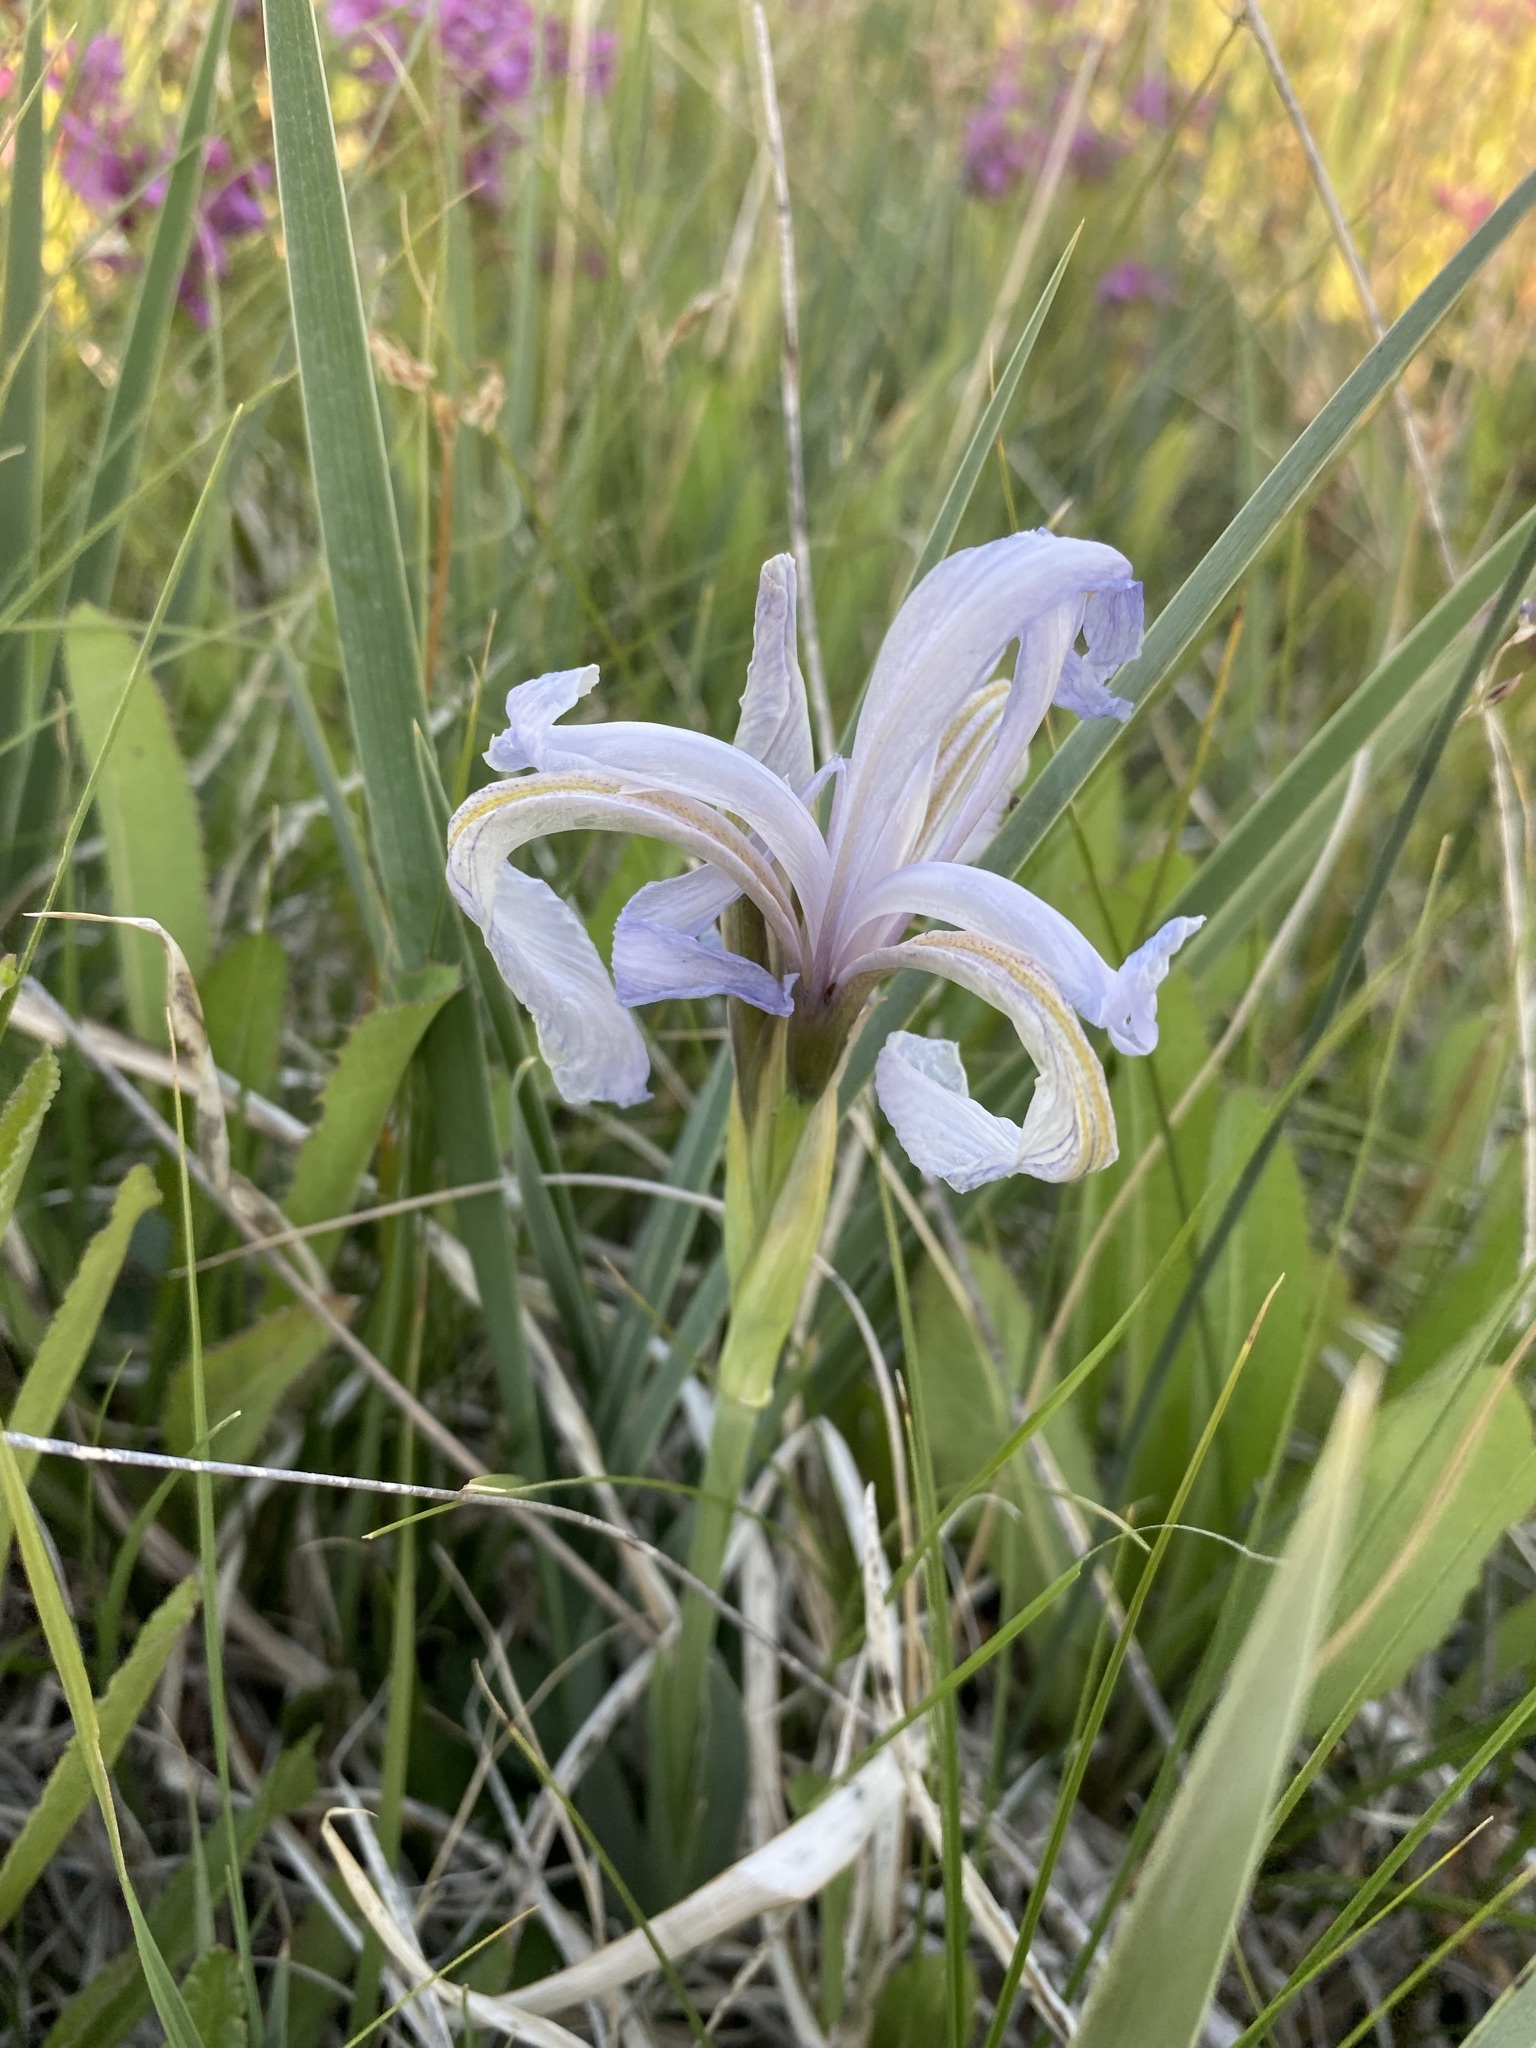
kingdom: Plantae
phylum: Tracheophyta
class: Liliopsida
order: Asparagales
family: Iridaceae
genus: Iris
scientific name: Iris missouriensis
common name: Rocky mountain iris
